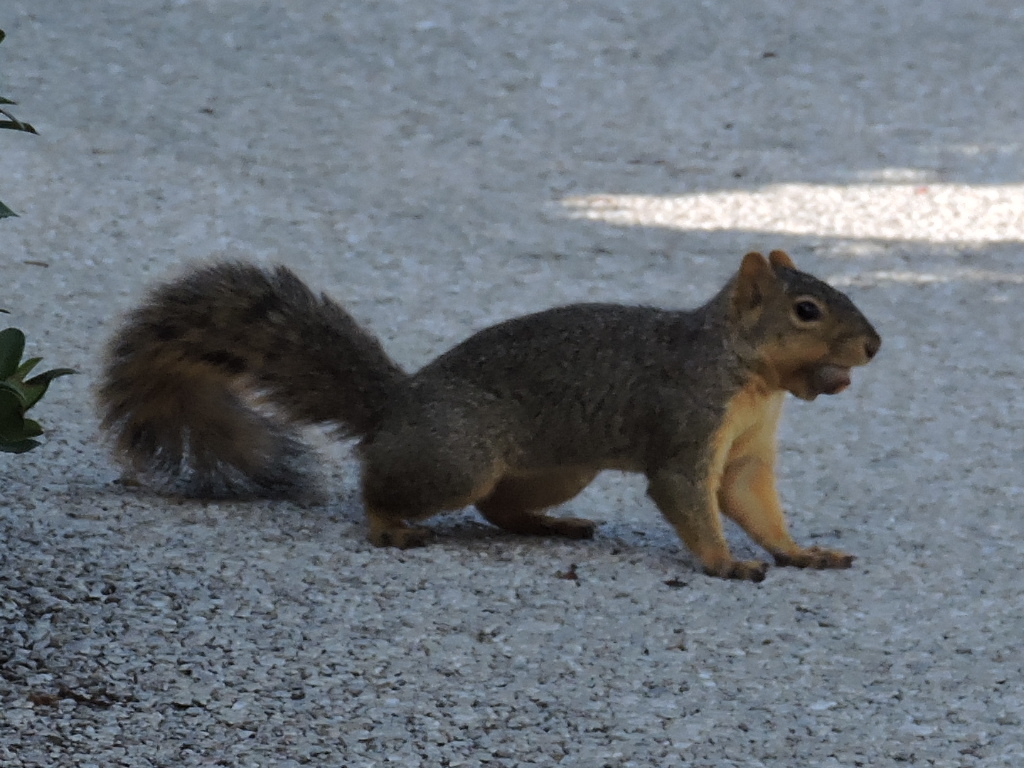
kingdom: Animalia
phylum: Chordata
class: Mammalia
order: Rodentia
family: Sciuridae
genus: Sciurus
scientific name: Sciurus niger
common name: Fox squirrel
